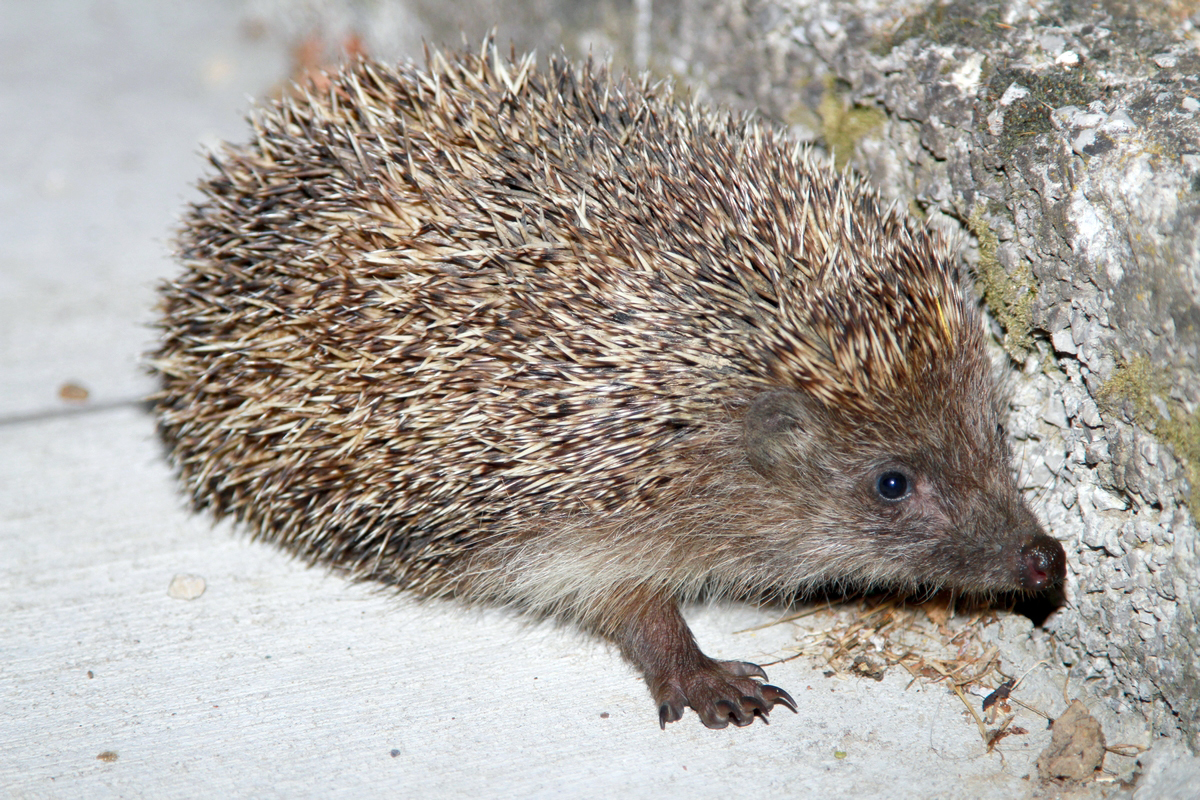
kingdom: Animalia
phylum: Chordata
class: Mammalia
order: Erinaceomorpha
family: Erinaceidae
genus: Erinaceus
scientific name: Erinaceus roumanicus
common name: Northern white-breasted hedgehog
